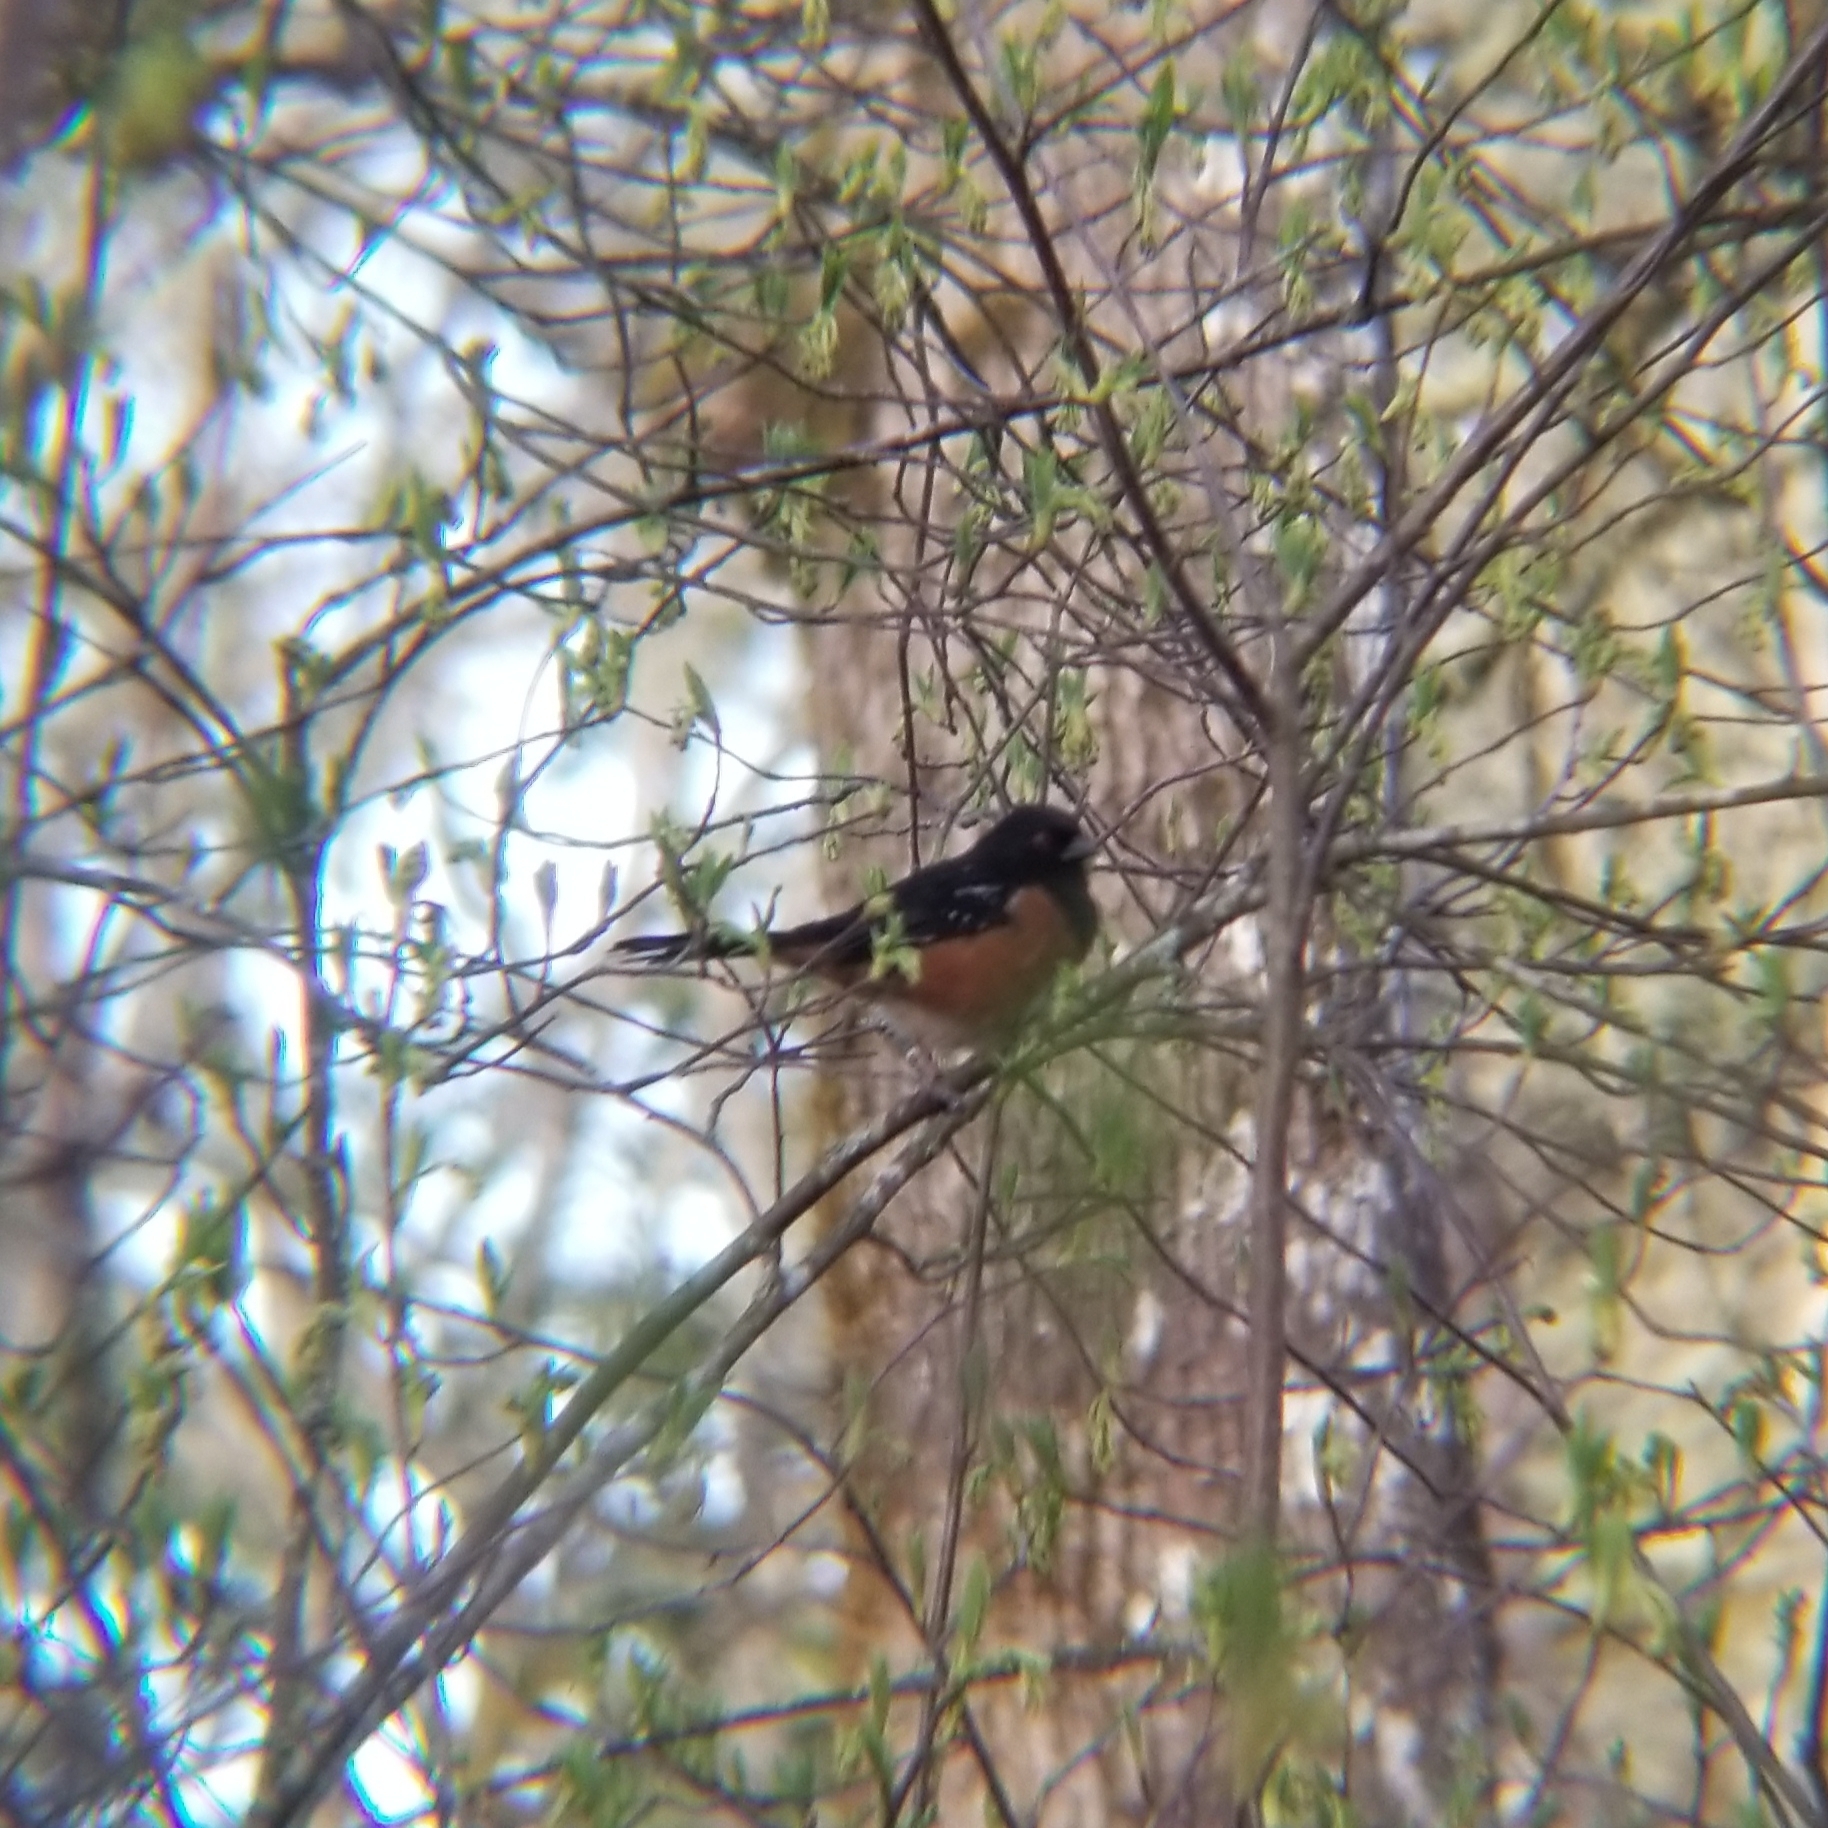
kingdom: Animalia
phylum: Chordata
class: Aves
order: Passeriformes
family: Passerellidae
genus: Pipilo
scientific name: Pipilo maculatus
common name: Spotted towhee
